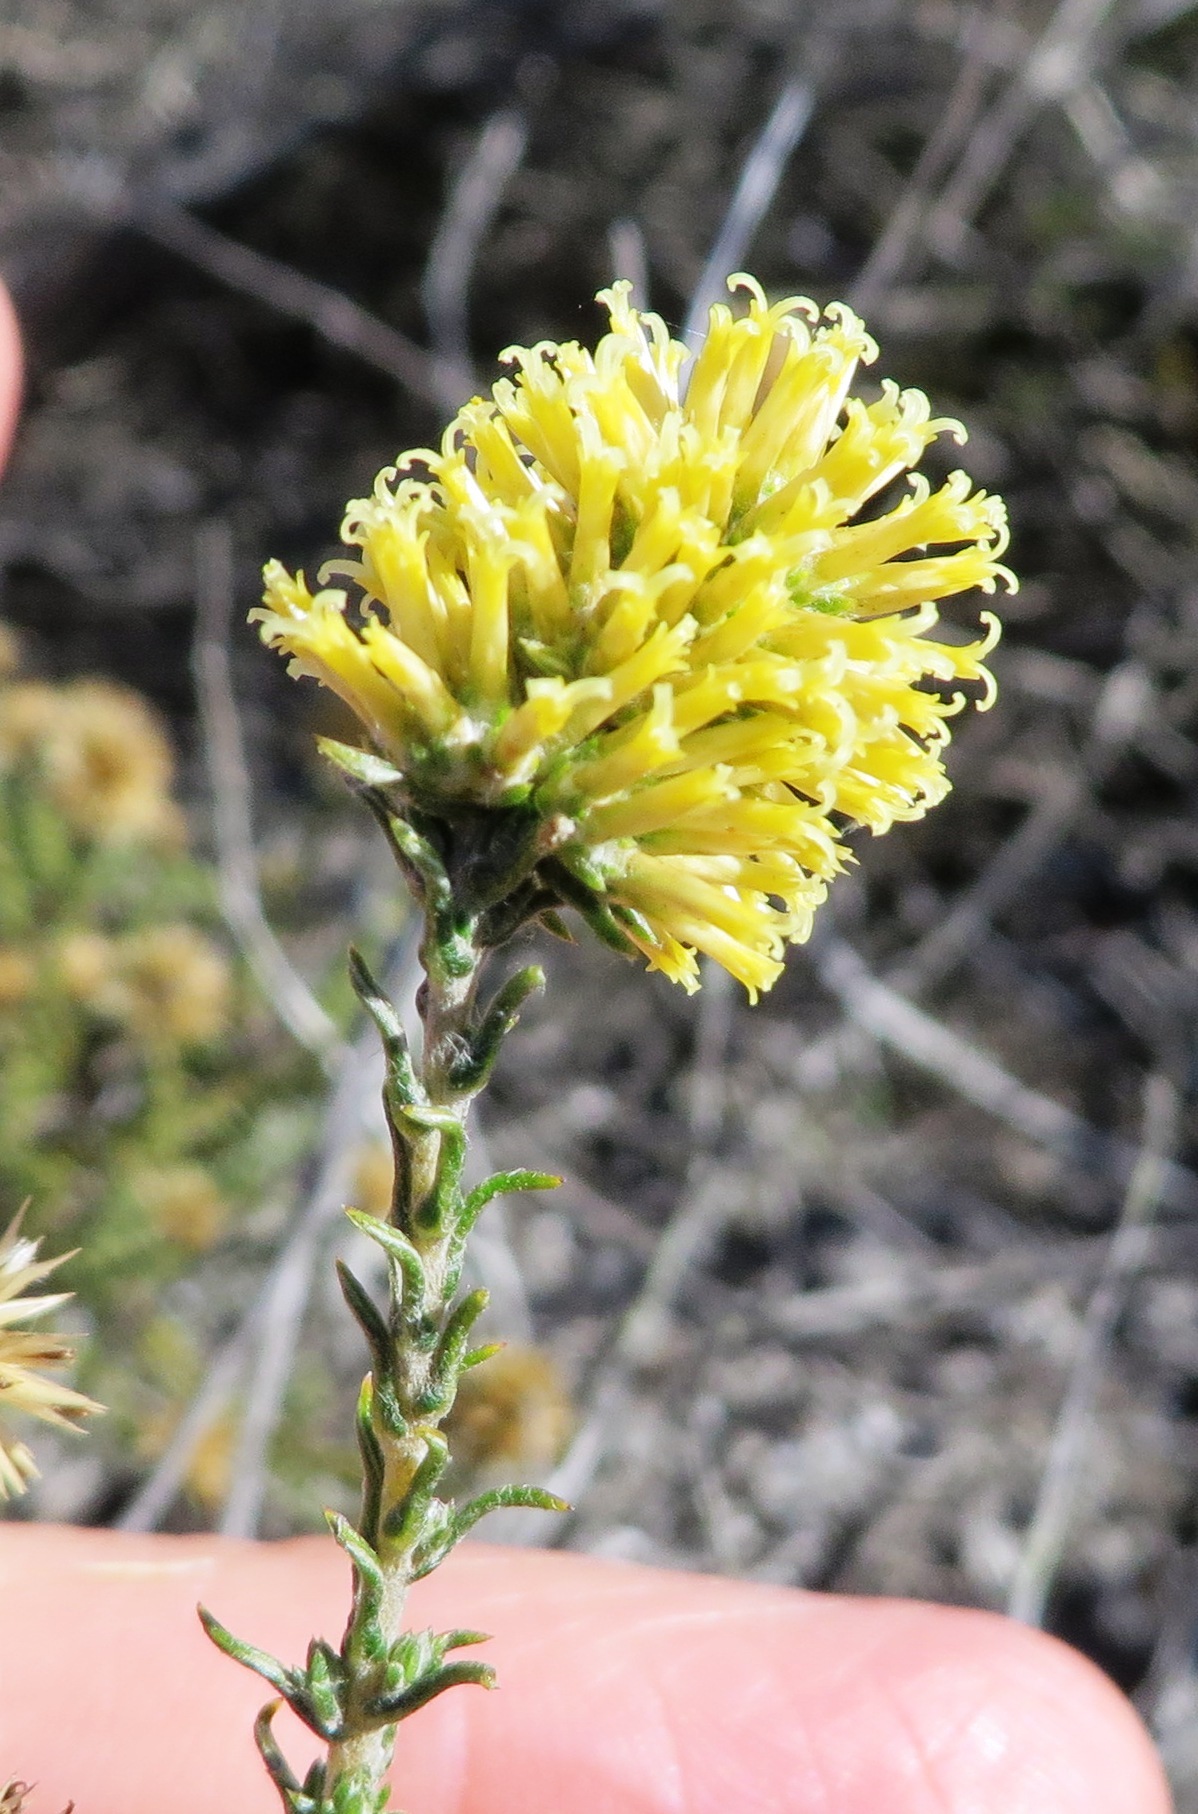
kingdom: Plantae
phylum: Tracheophyta
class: Magnoliopsida
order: Asterales
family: Asteraceae
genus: Seriphium
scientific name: Seriphium spirale
